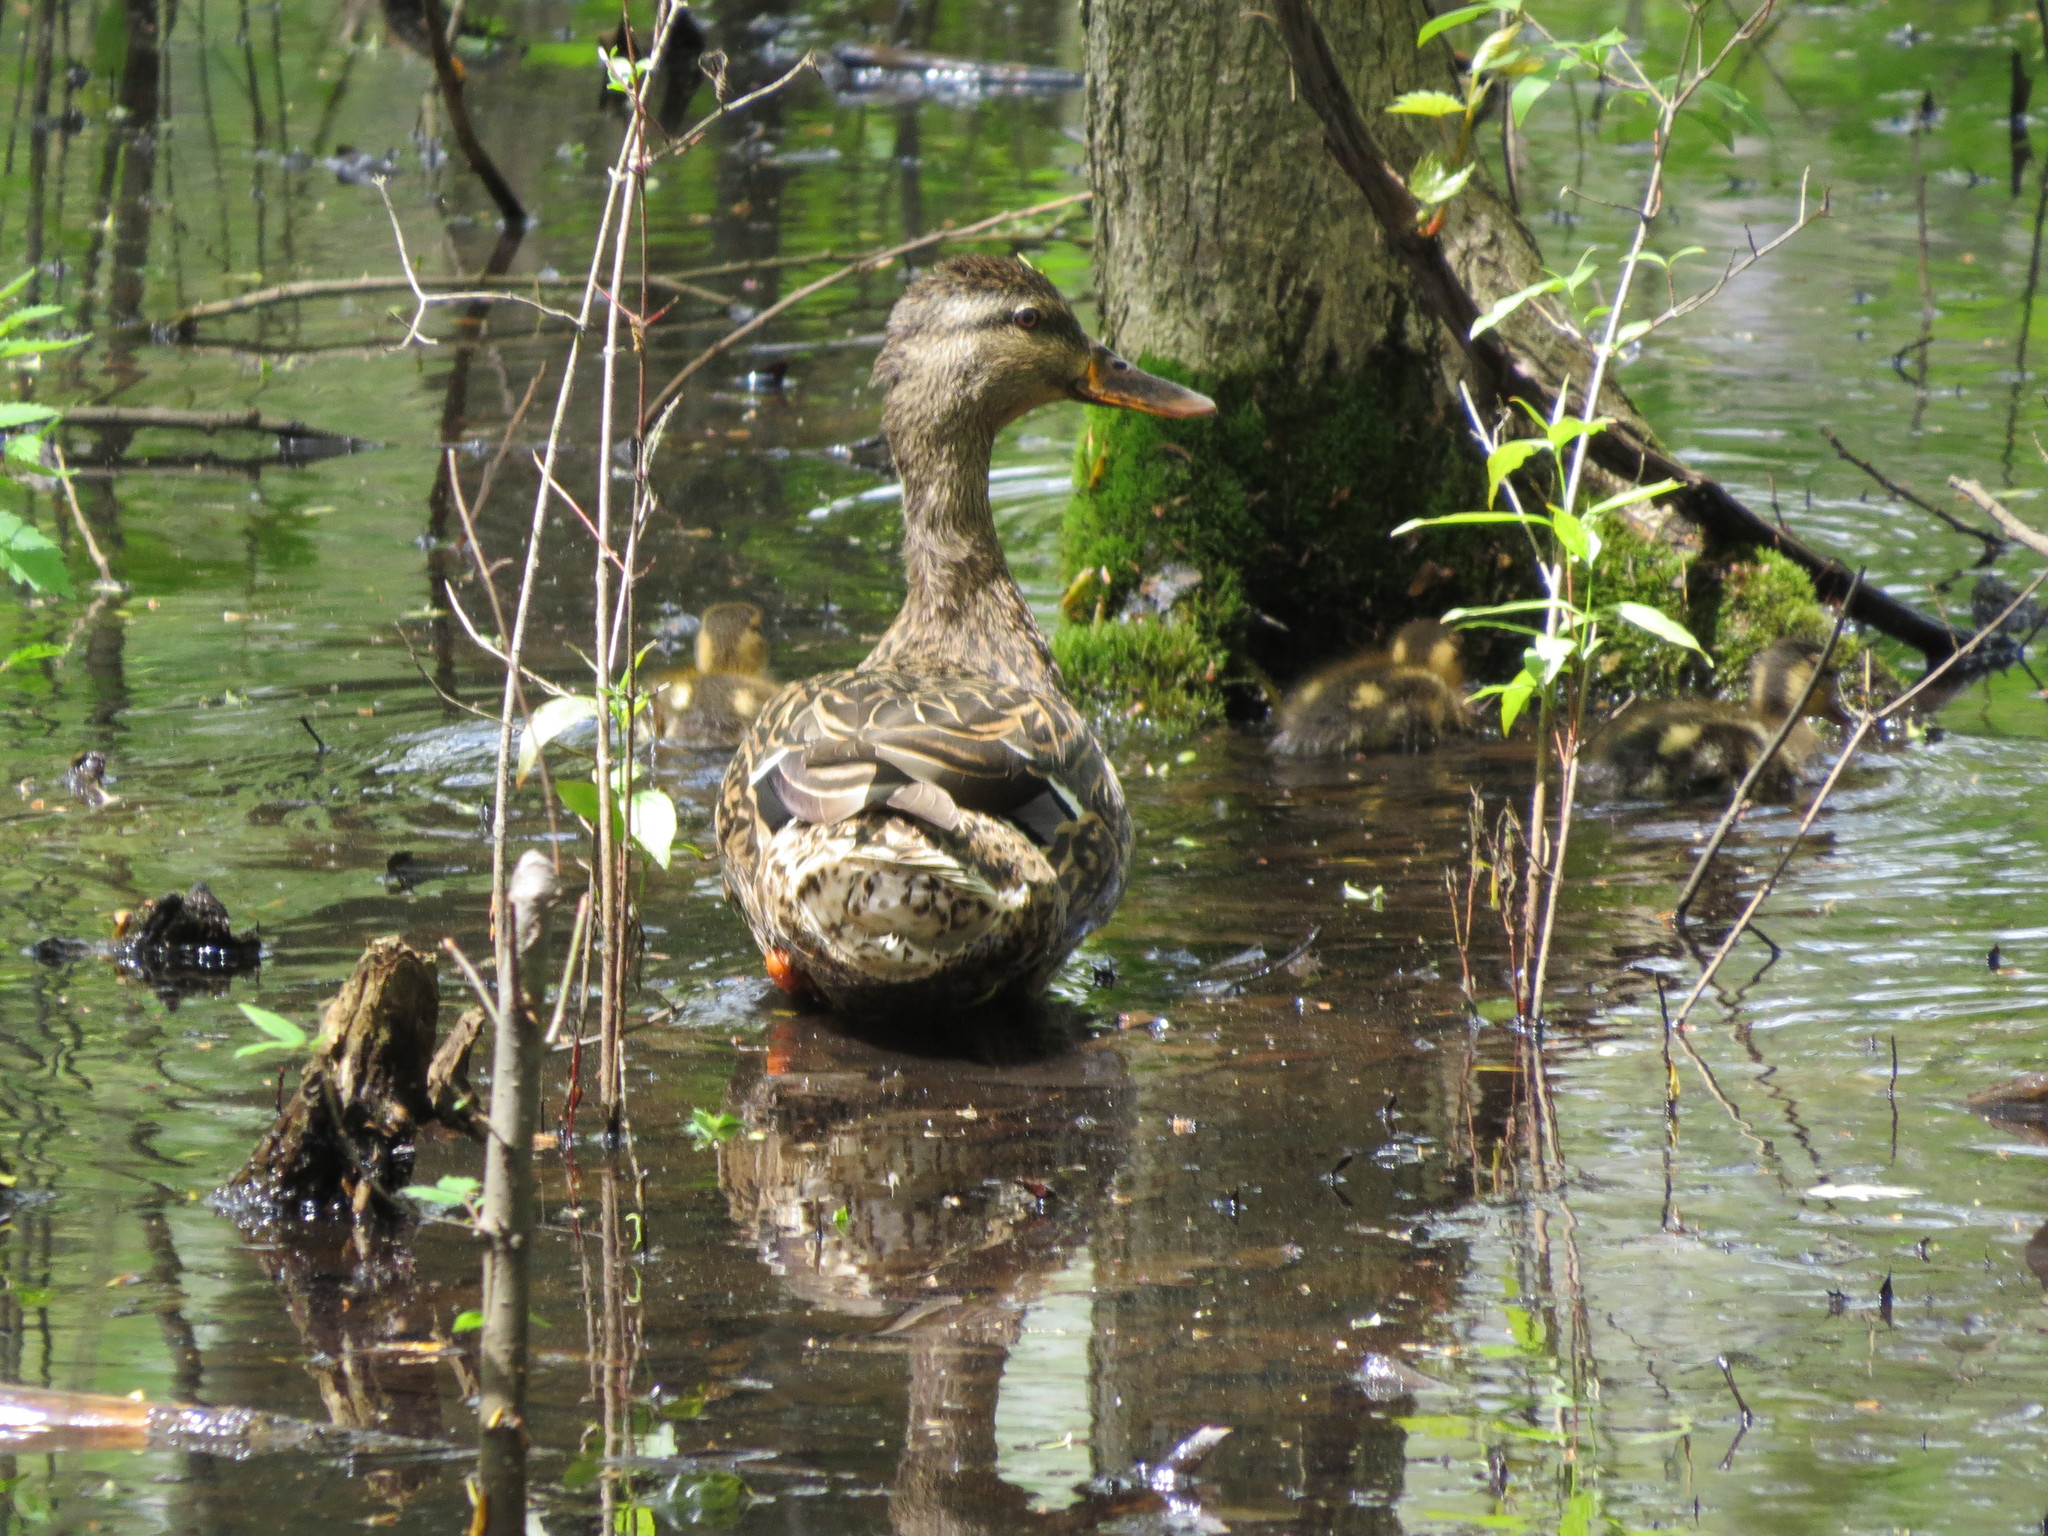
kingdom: Animalia
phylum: Chordata
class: Aves
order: Anseriformes
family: Anatidae
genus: Anas
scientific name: Anas platyrhynchos
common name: Mallard
